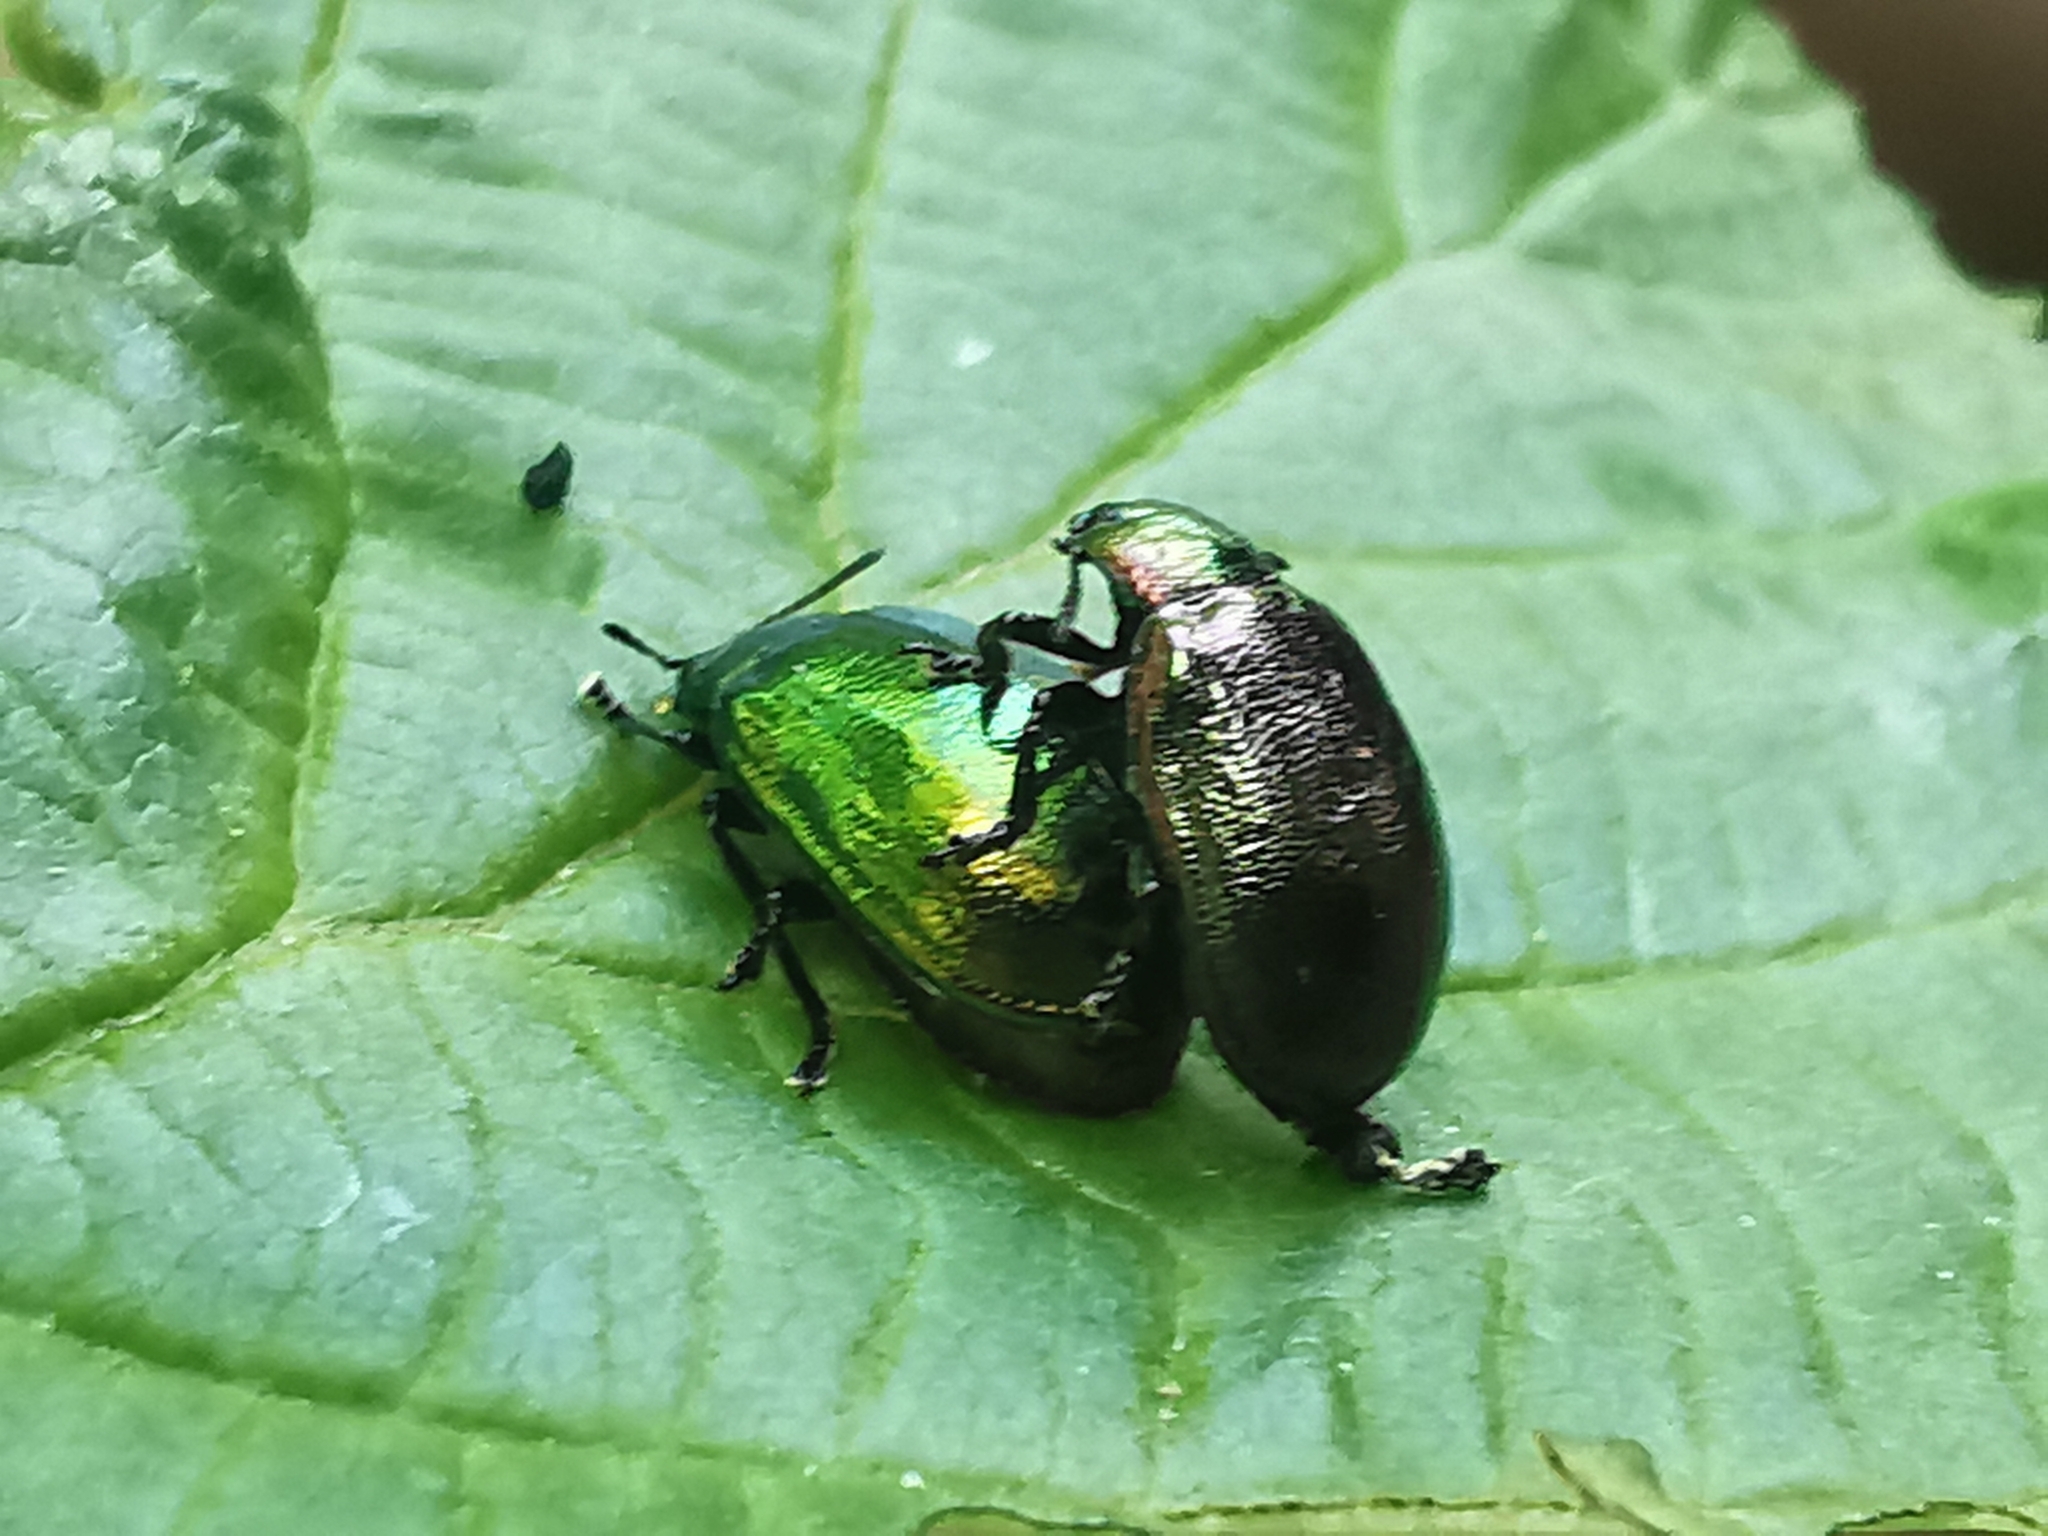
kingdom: Animalia
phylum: Arthropoda
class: Insecta
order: Coleoptera
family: Chrysomelidae
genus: Plagiosterna
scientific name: Plagiosterna aenea
